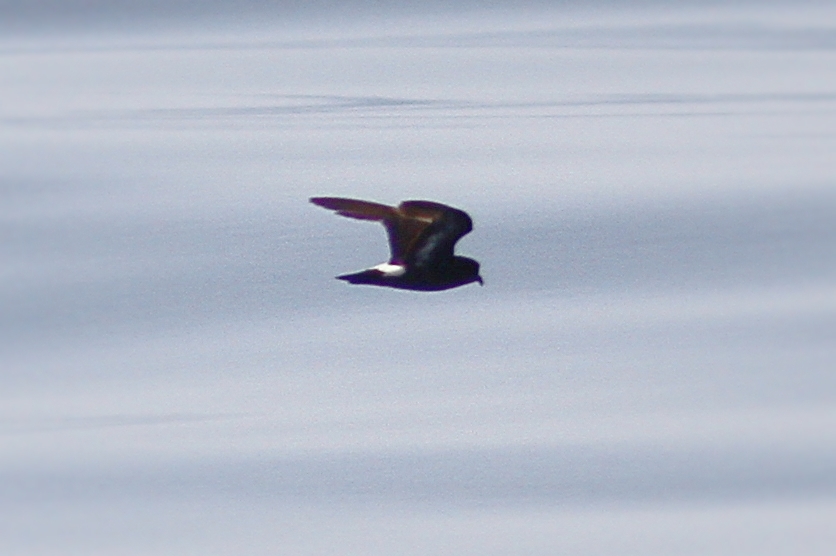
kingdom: Animalia
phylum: Chordata
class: Aves
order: Procellariiformes
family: Hydrobatidae
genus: Hydrobates
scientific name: Hydrobates pelagicus
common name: European storm-petrel
